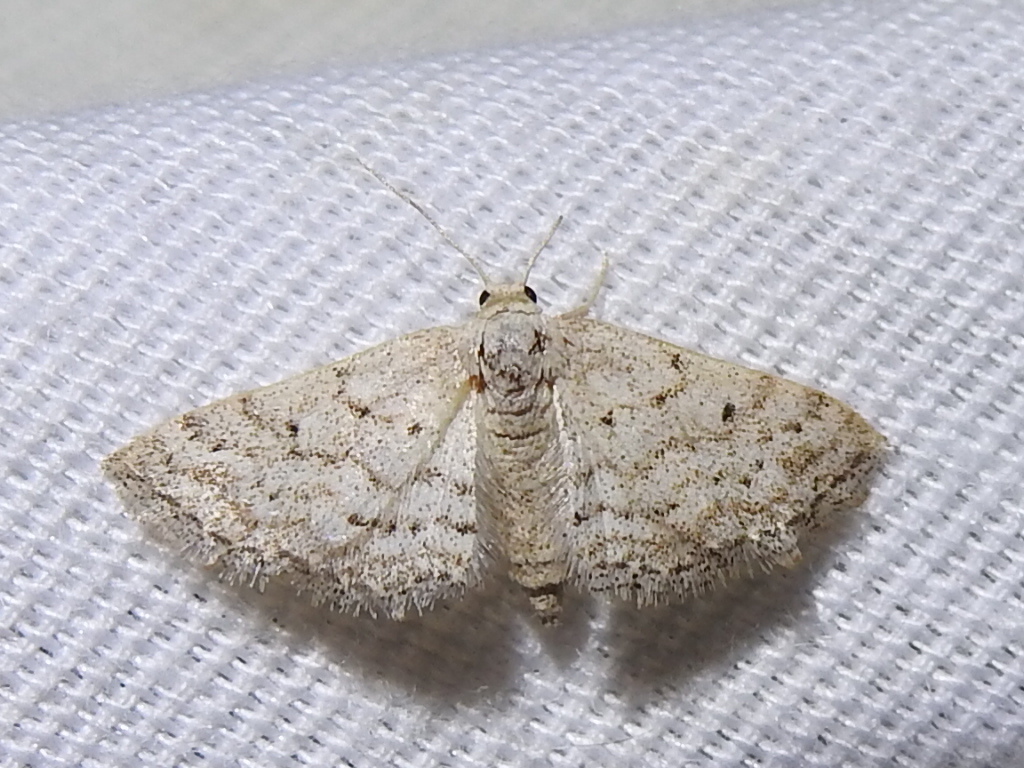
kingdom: Animalia
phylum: Arthropoda
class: Insecta
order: Lepidoptera
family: Geometridae
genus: Lobocleta
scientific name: Lobocleta ossularia
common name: Drab brown wave
